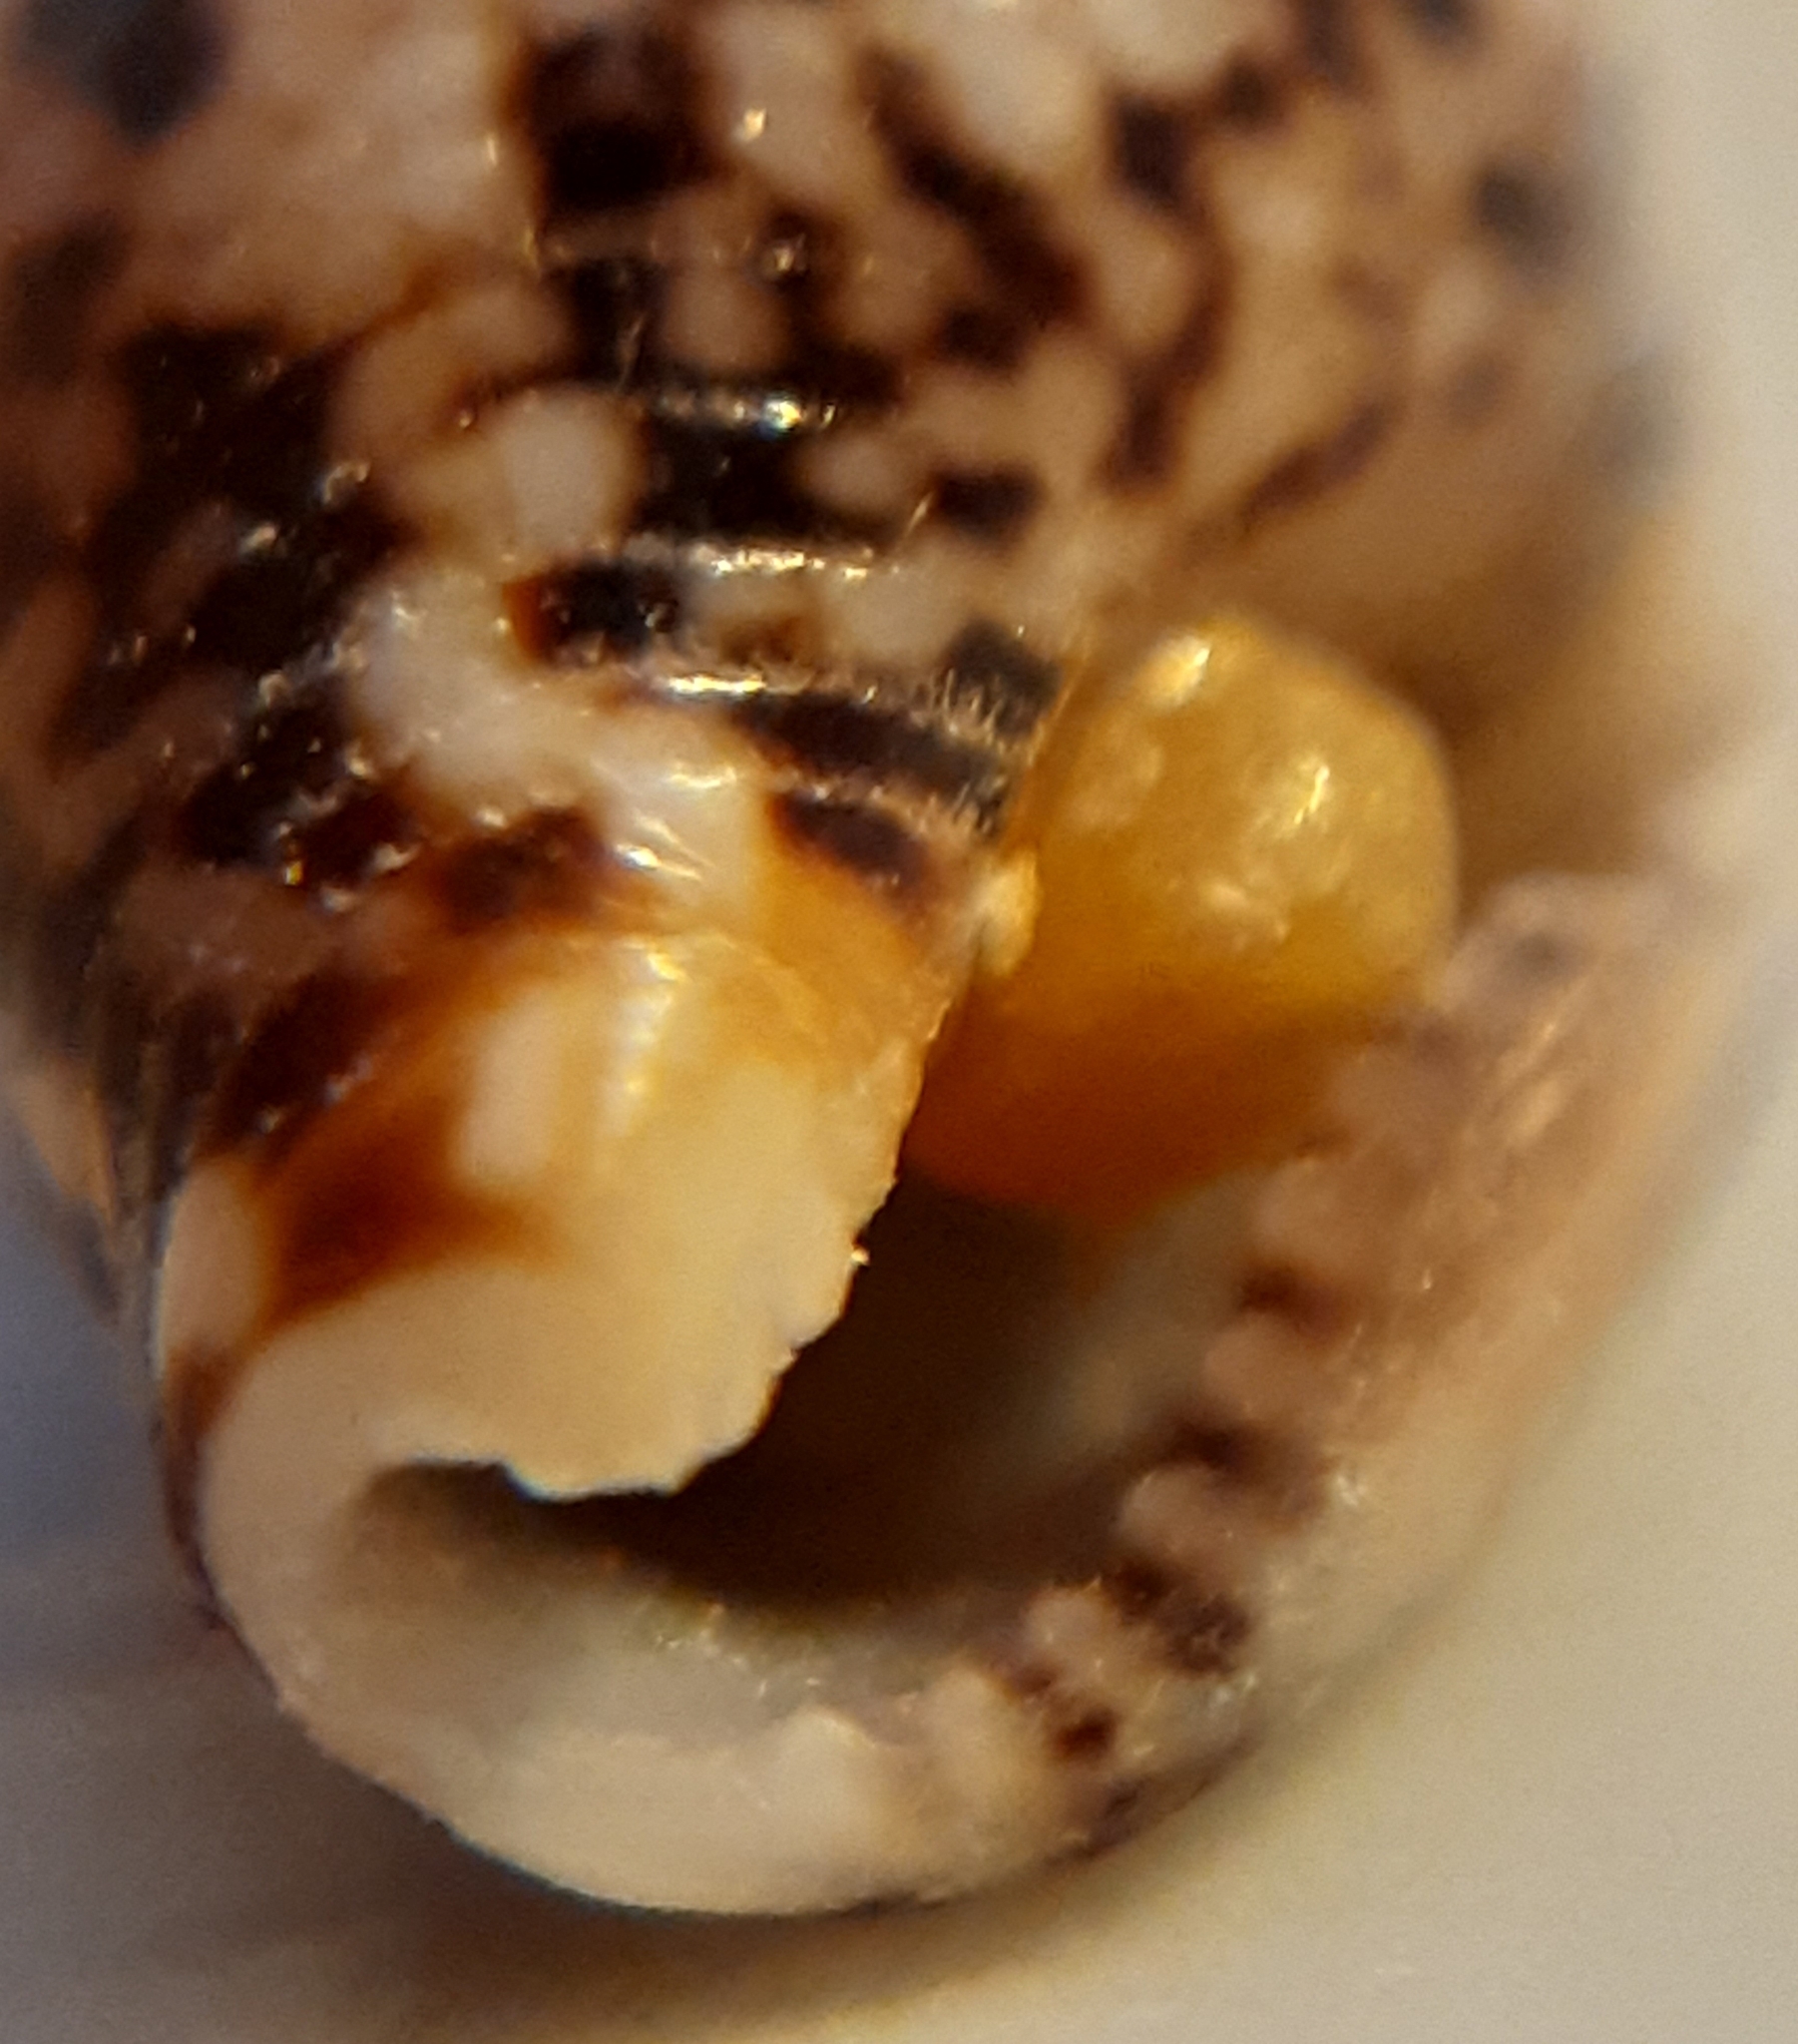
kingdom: Animalia
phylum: Mollusca
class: Gastropoda
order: Neogastropoda
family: Columbellidae
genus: Columbella
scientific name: Columbella rustica
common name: Rustic dove shell
